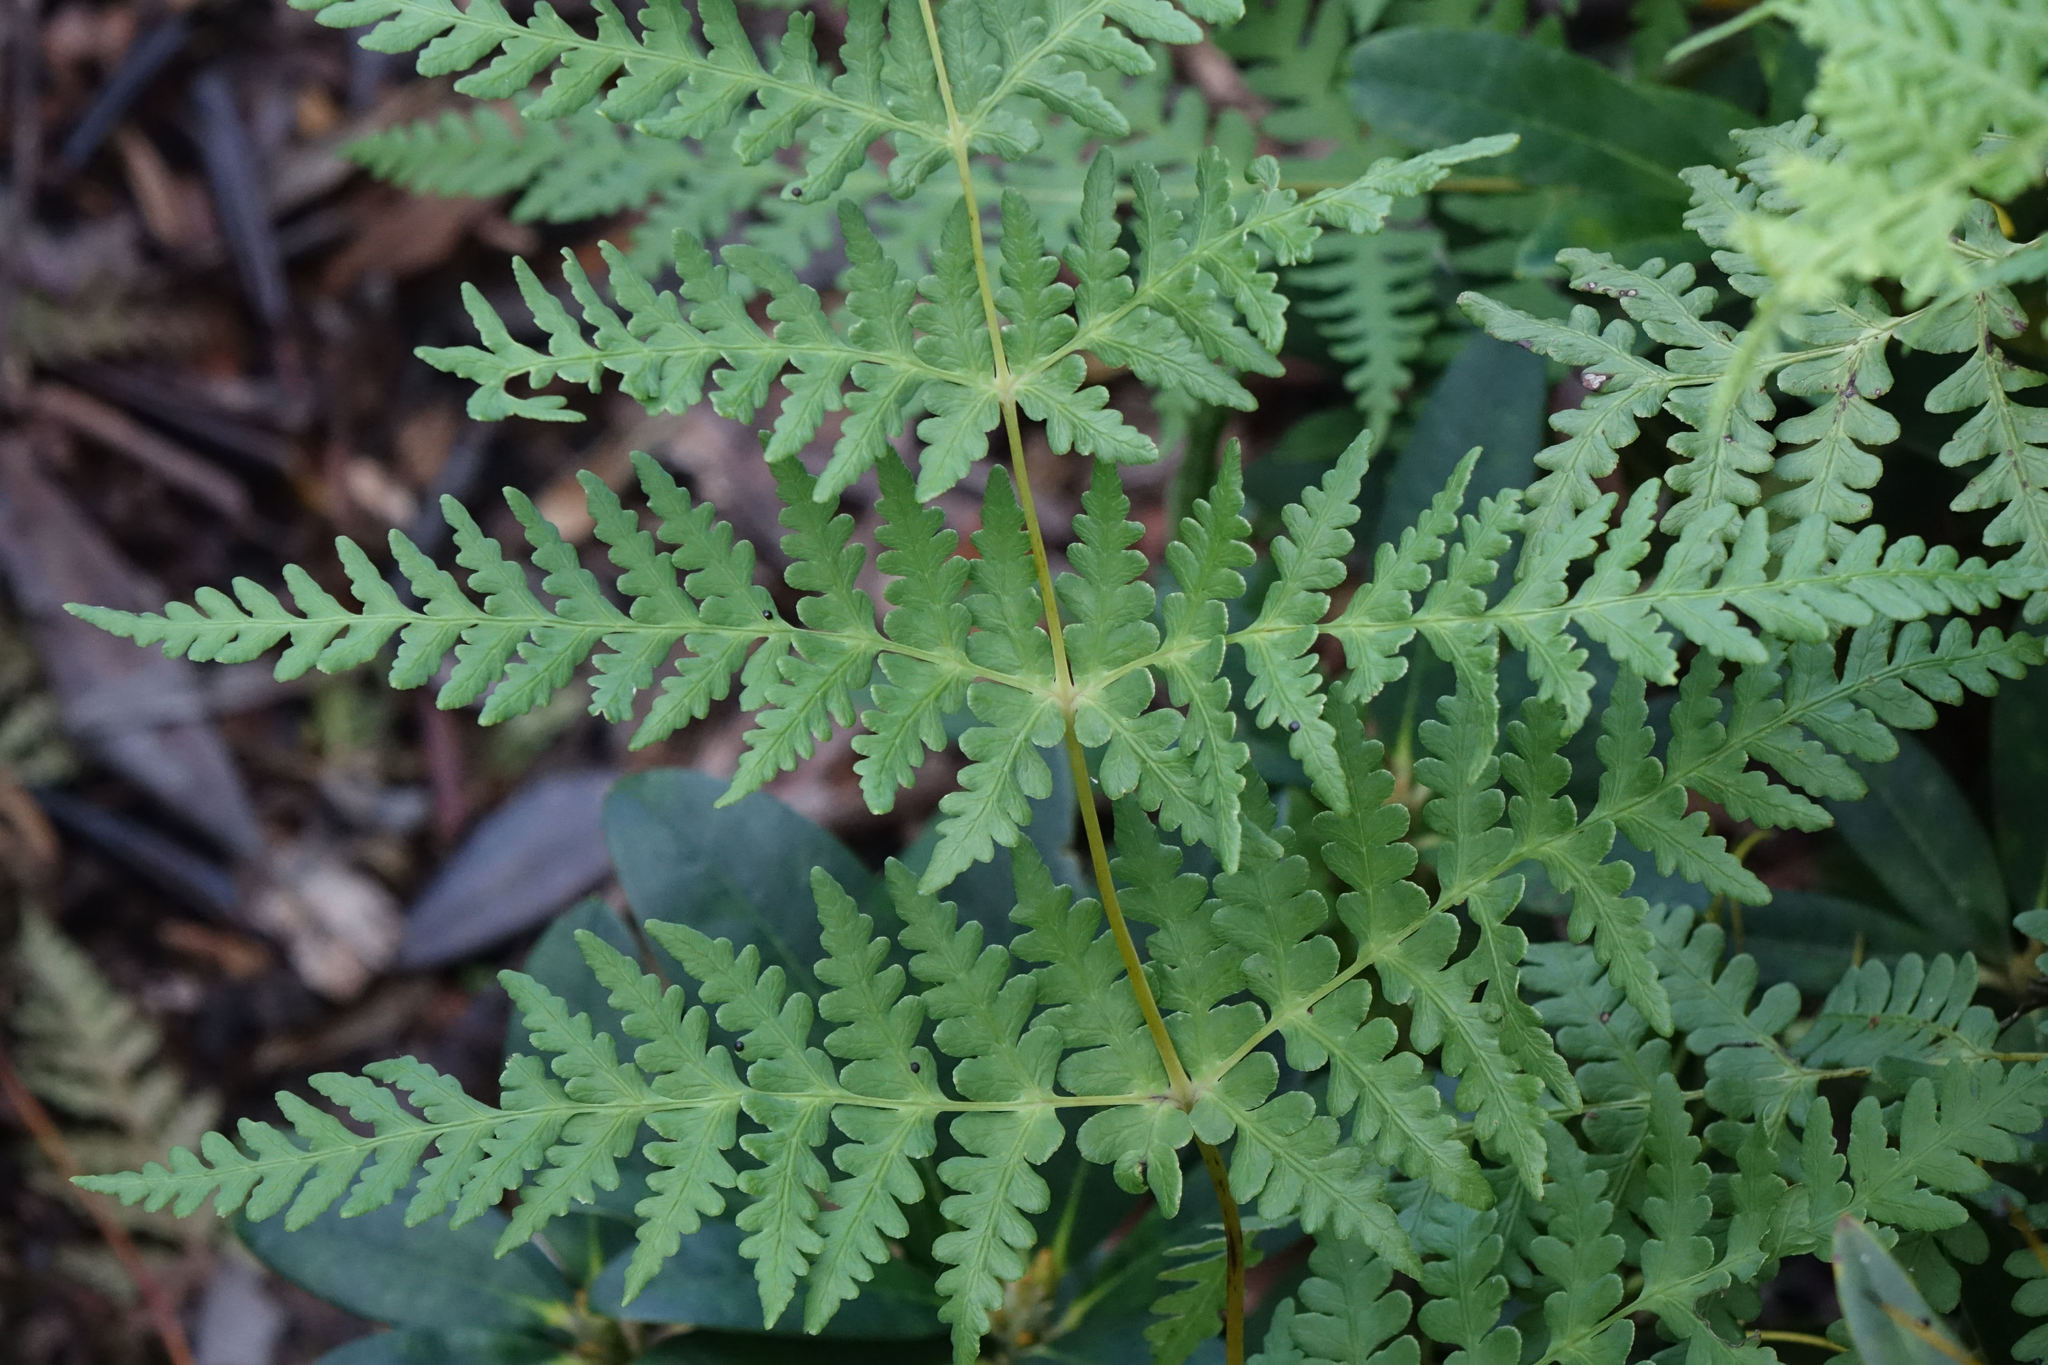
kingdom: Plantae
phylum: Tracheophyta
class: Polypodiopsida
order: Polypodiales
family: Dennstaedtiaceae
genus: Histiopteris
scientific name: Histiopteris incisa
